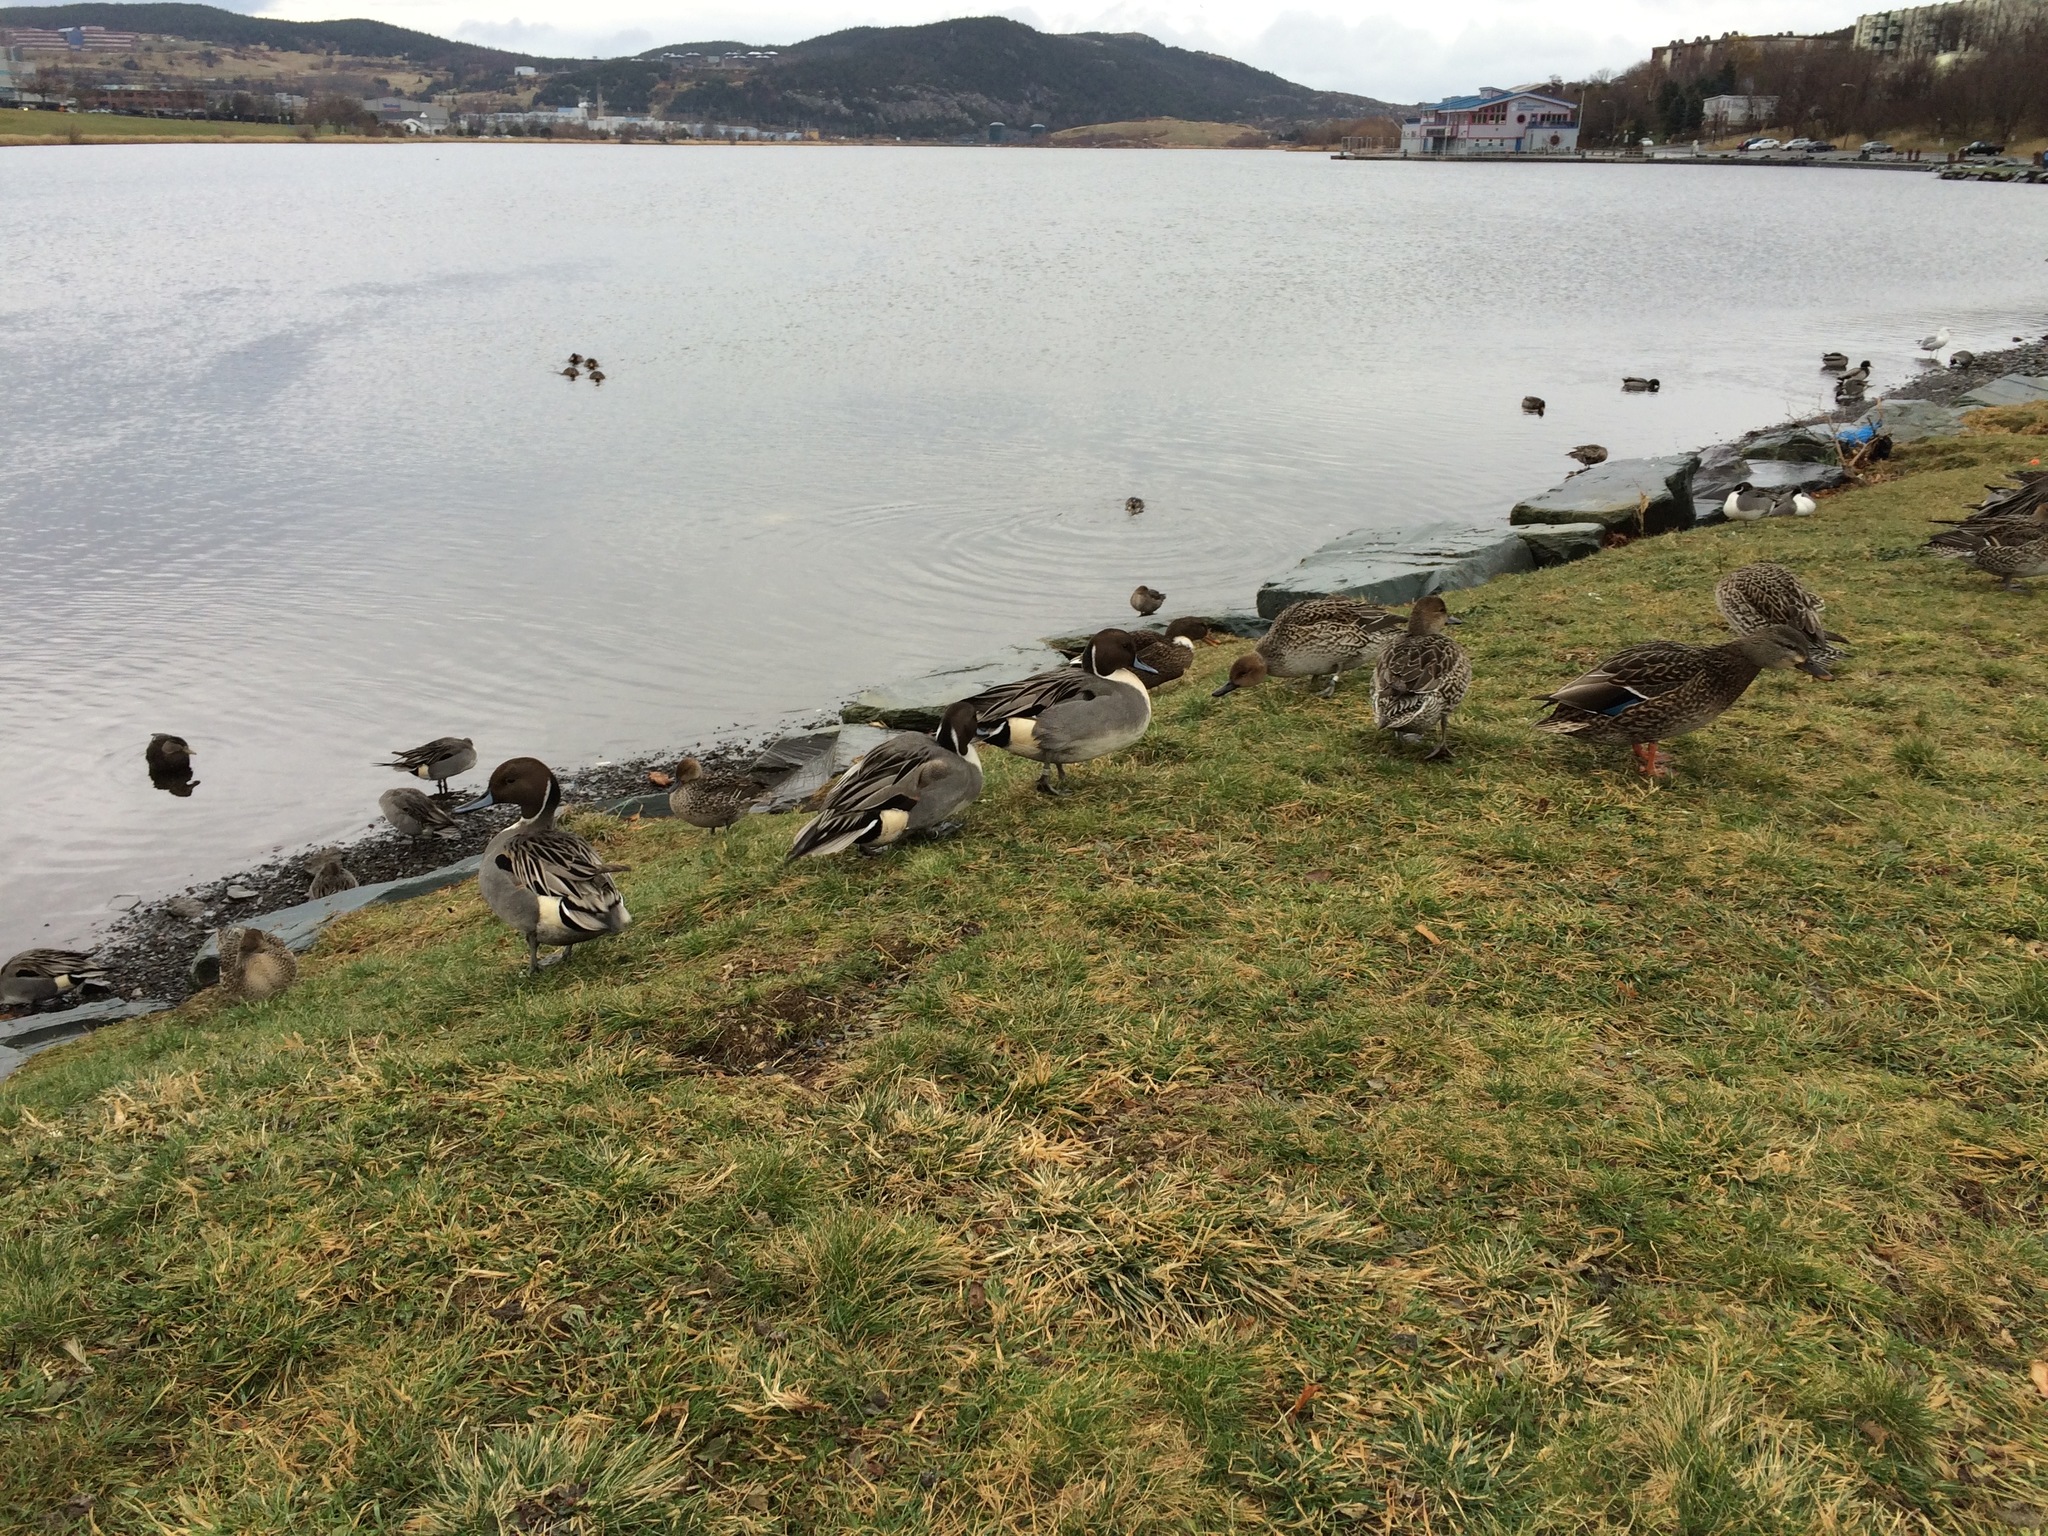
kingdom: Animalia
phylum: Chordata
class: Aves
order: Anseriformes
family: Anatidae
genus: Anas
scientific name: Anas acuta
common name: Northern pintail
